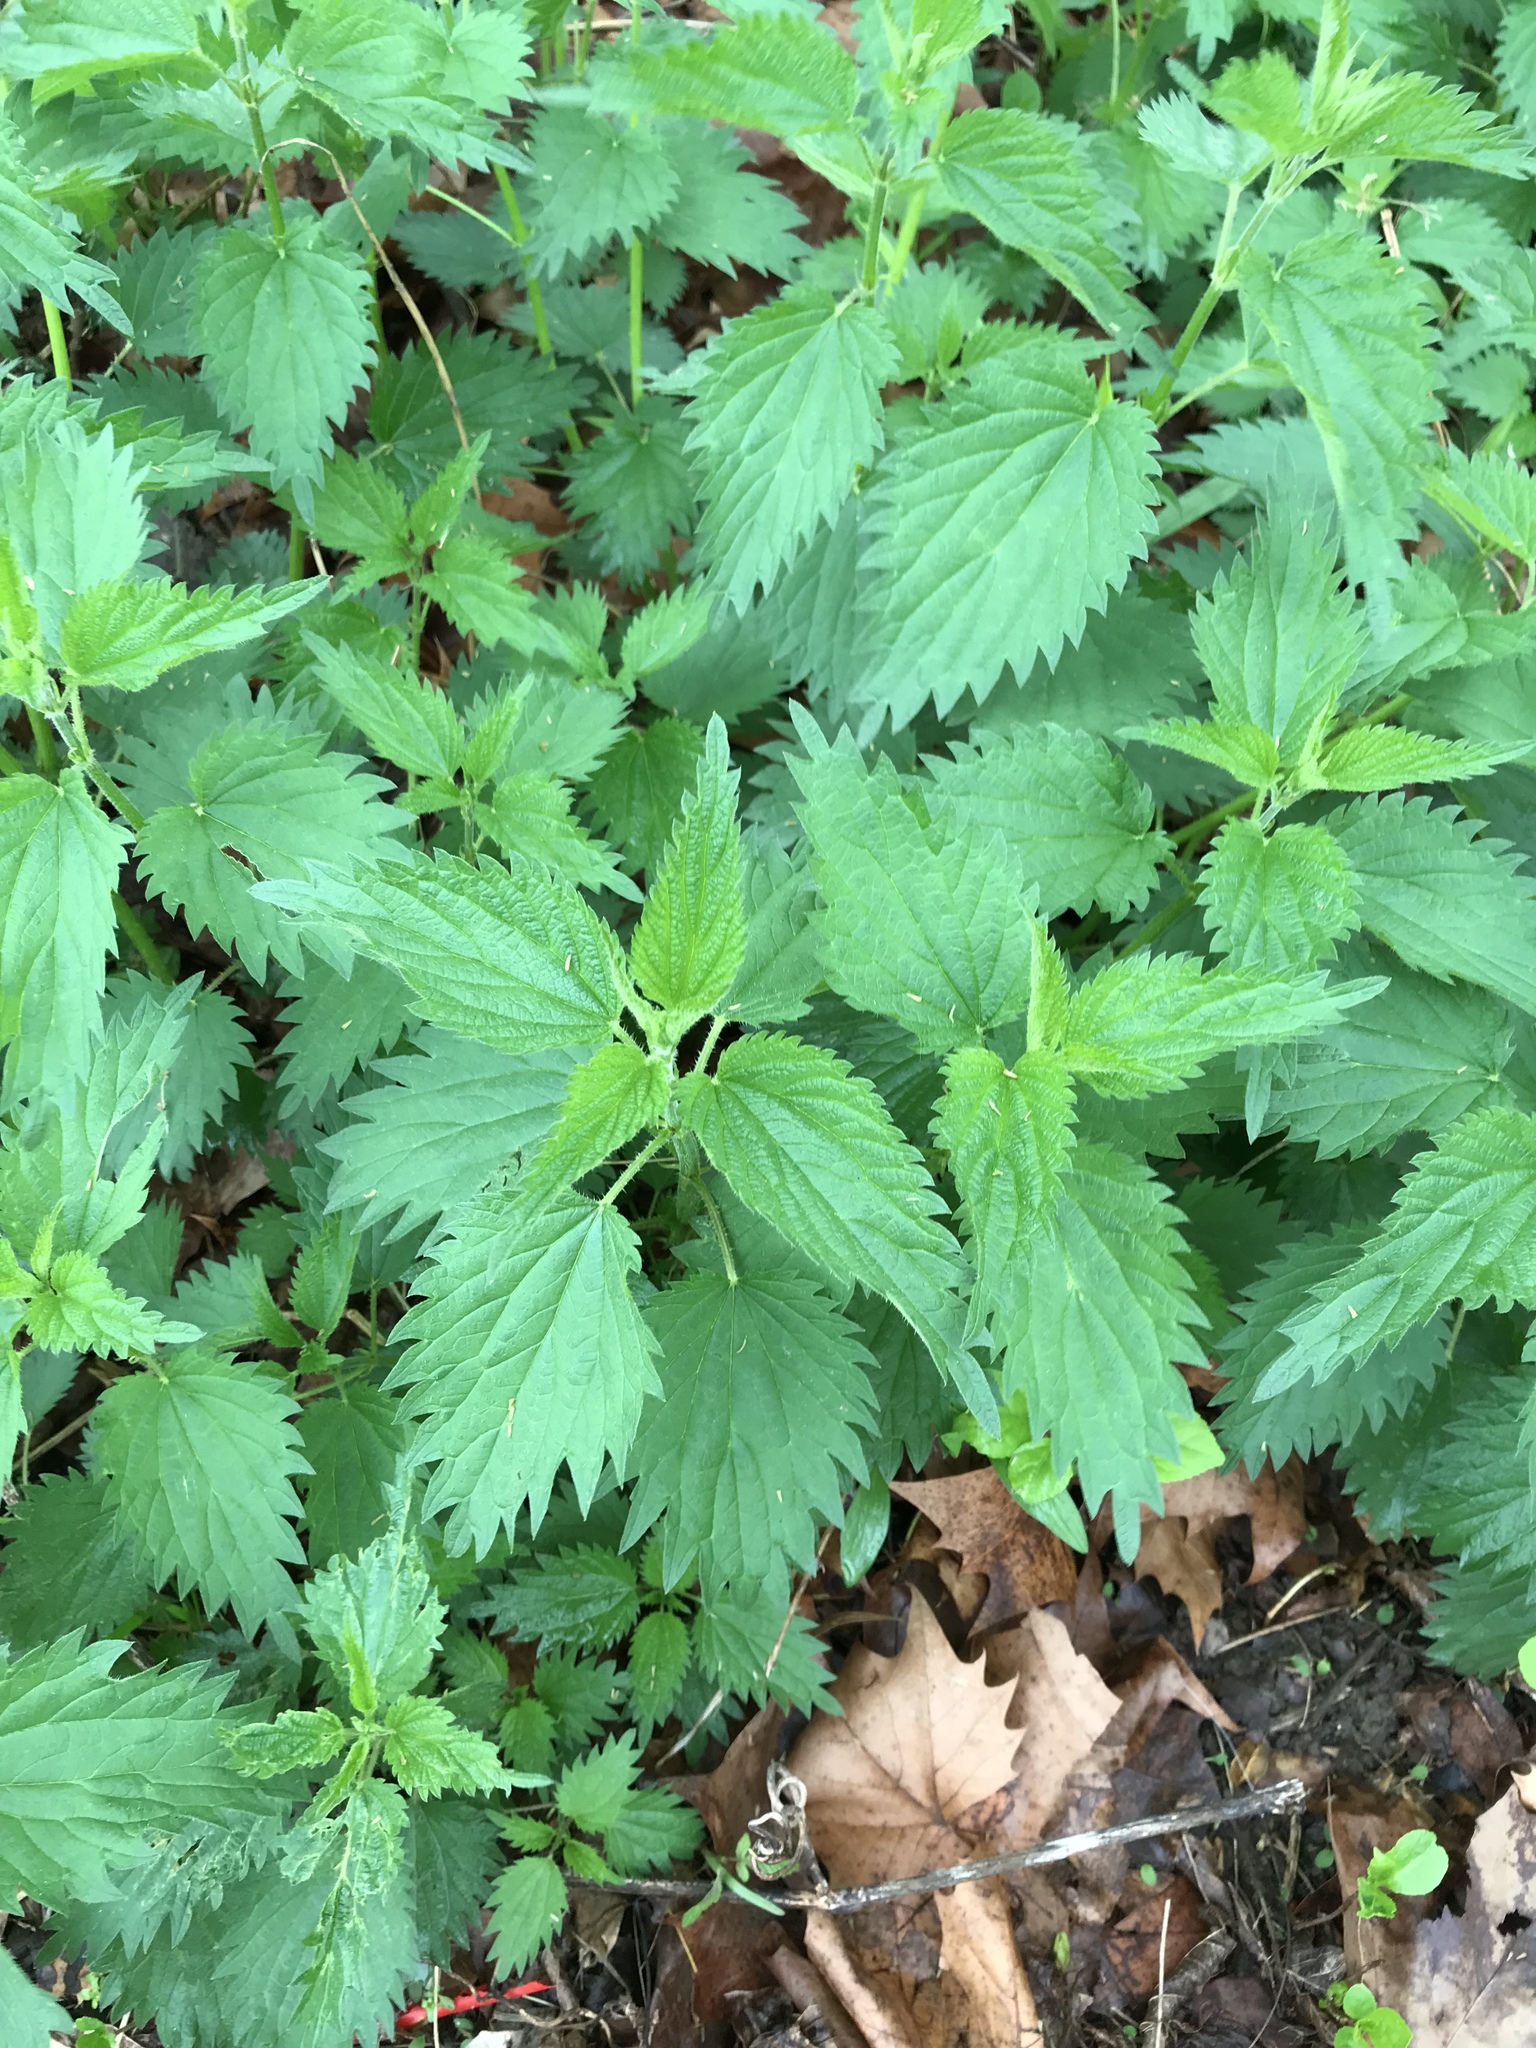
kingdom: Plantae
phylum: Tracheophyta
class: Magnoliopsida
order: Rosales
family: Urticaceae
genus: Urtica
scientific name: Urtica dioica
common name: Common nettle
